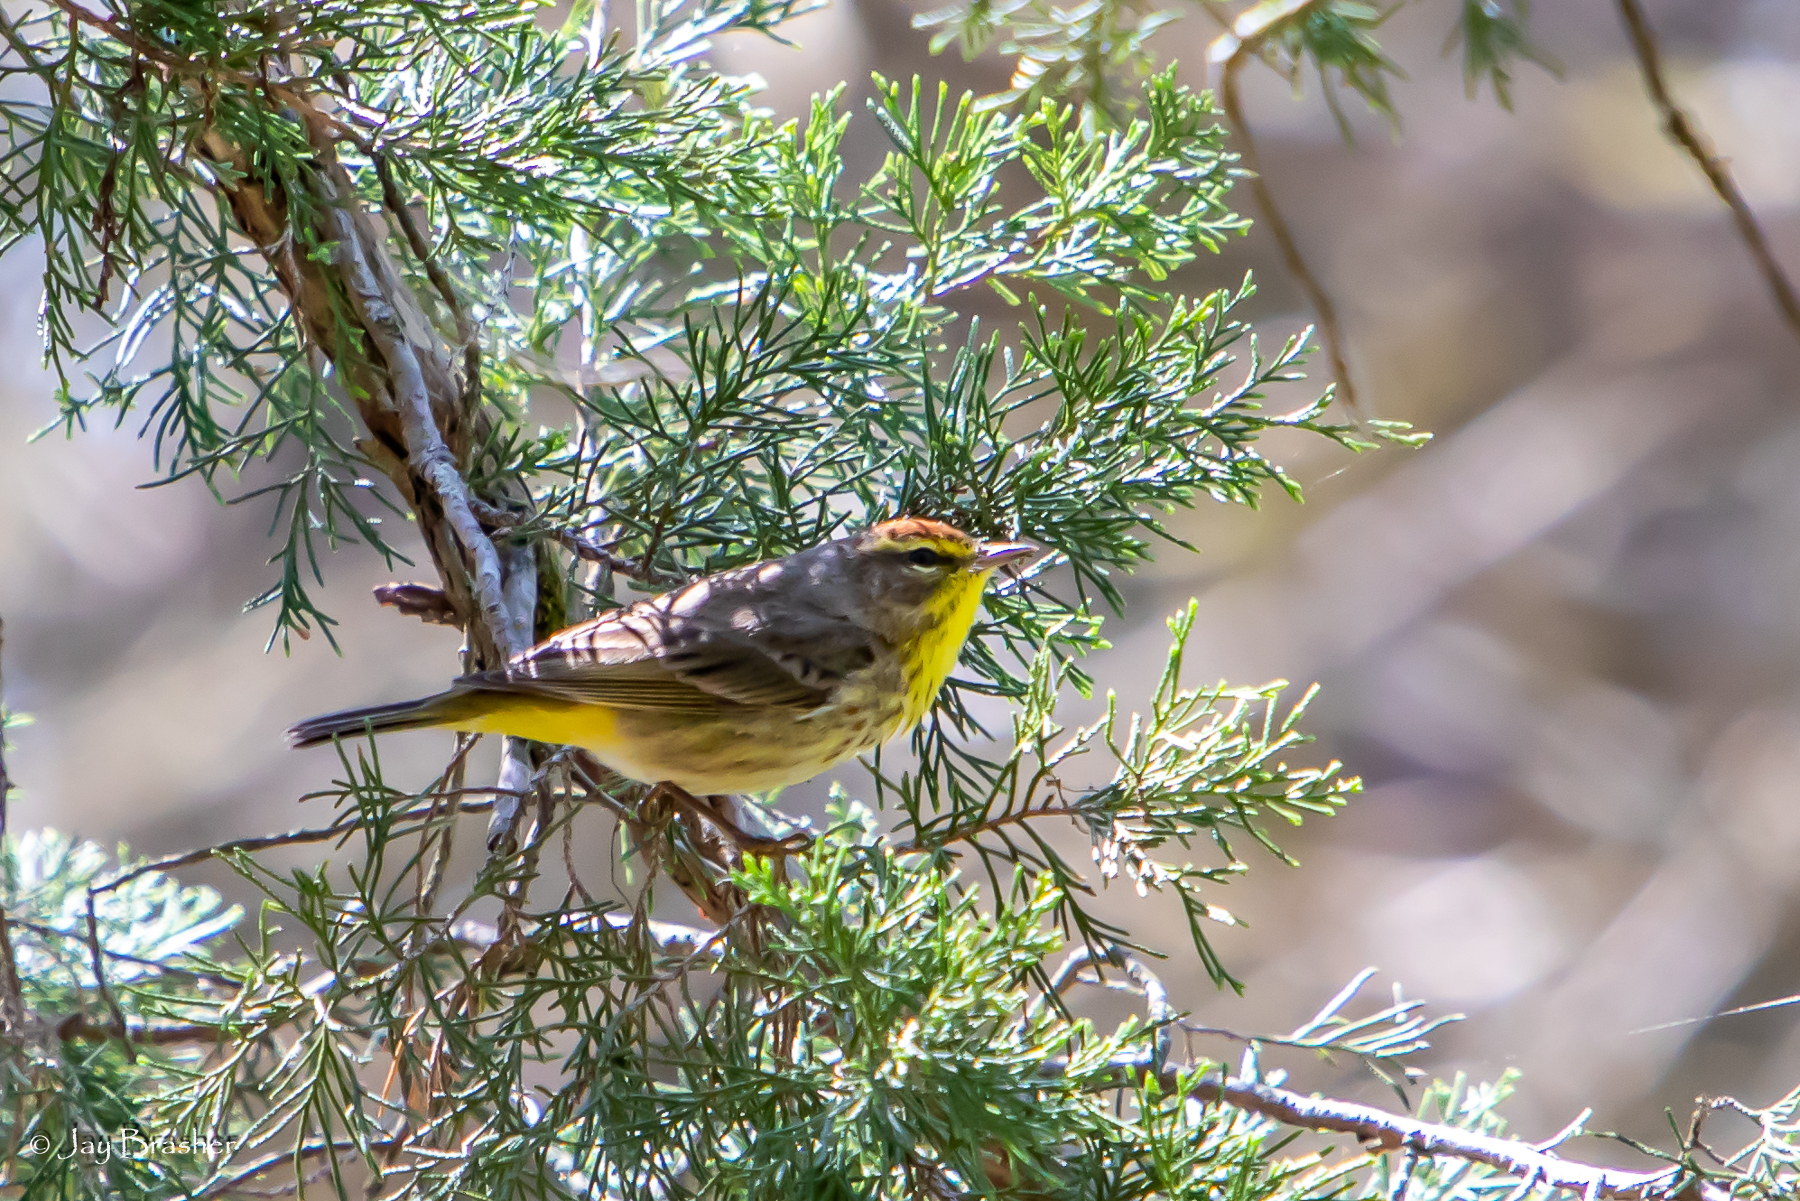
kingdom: Animalia
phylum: Chordata
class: Aves
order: Passeriformes
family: Parulidae
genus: Setophaga
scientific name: Setophaga palmarum
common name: Palm warbler
